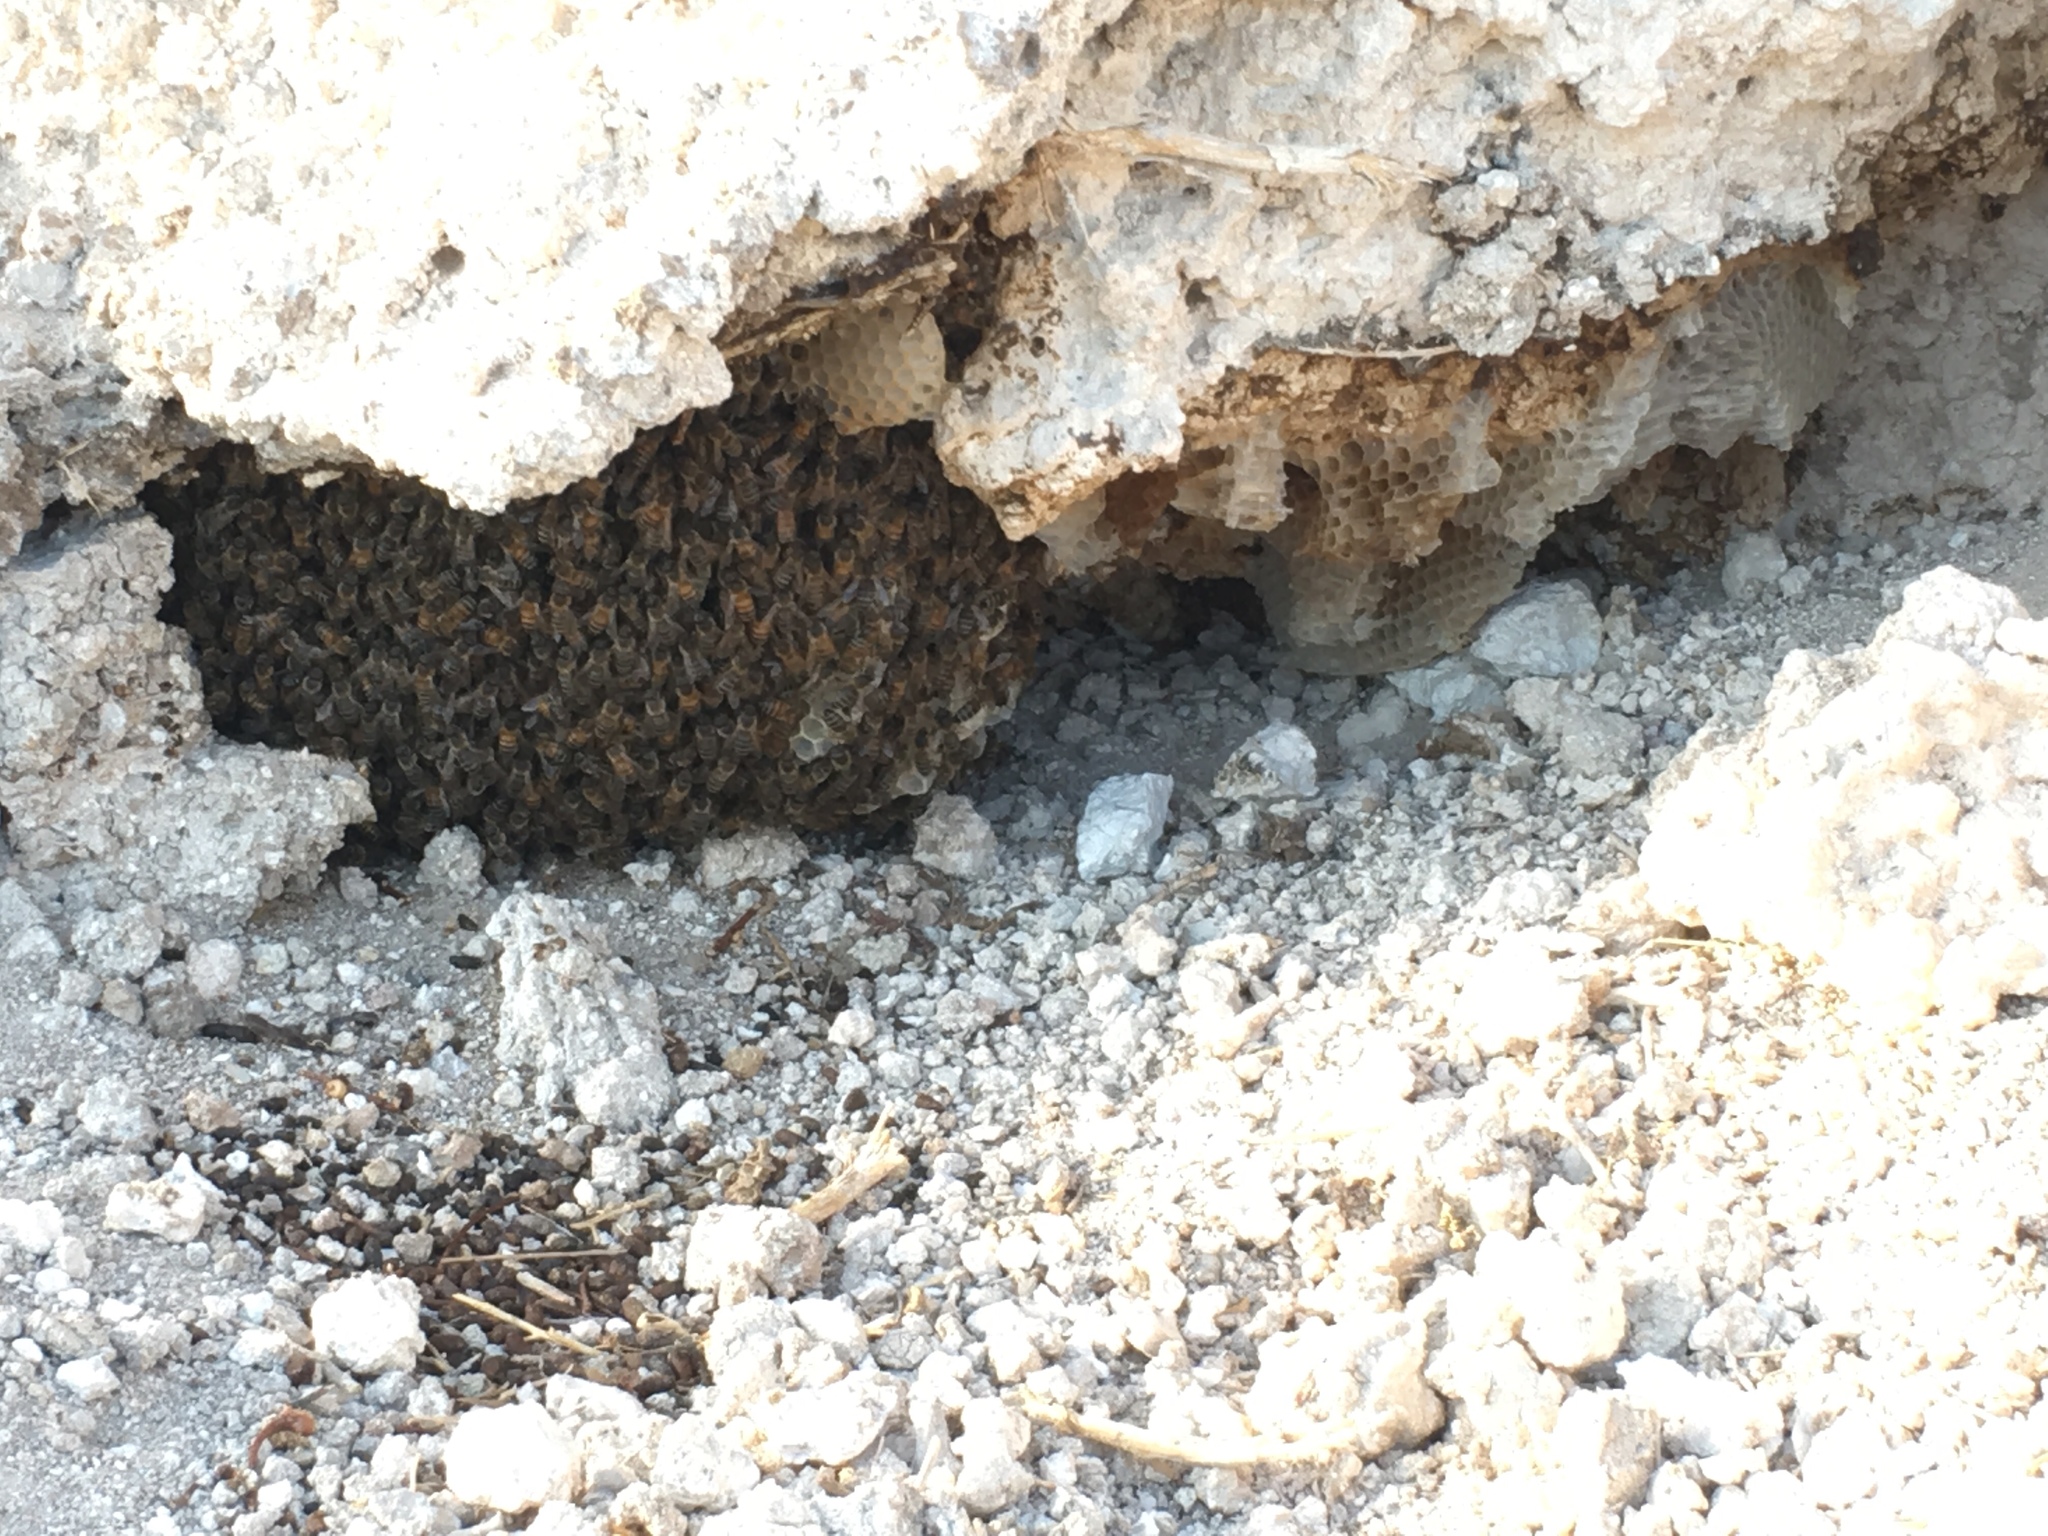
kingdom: Animalia
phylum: Arthropoda
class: Insecta
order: Hymenoptera
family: Apidae
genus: Apis
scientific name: Apis mellifera
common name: Honey bee
